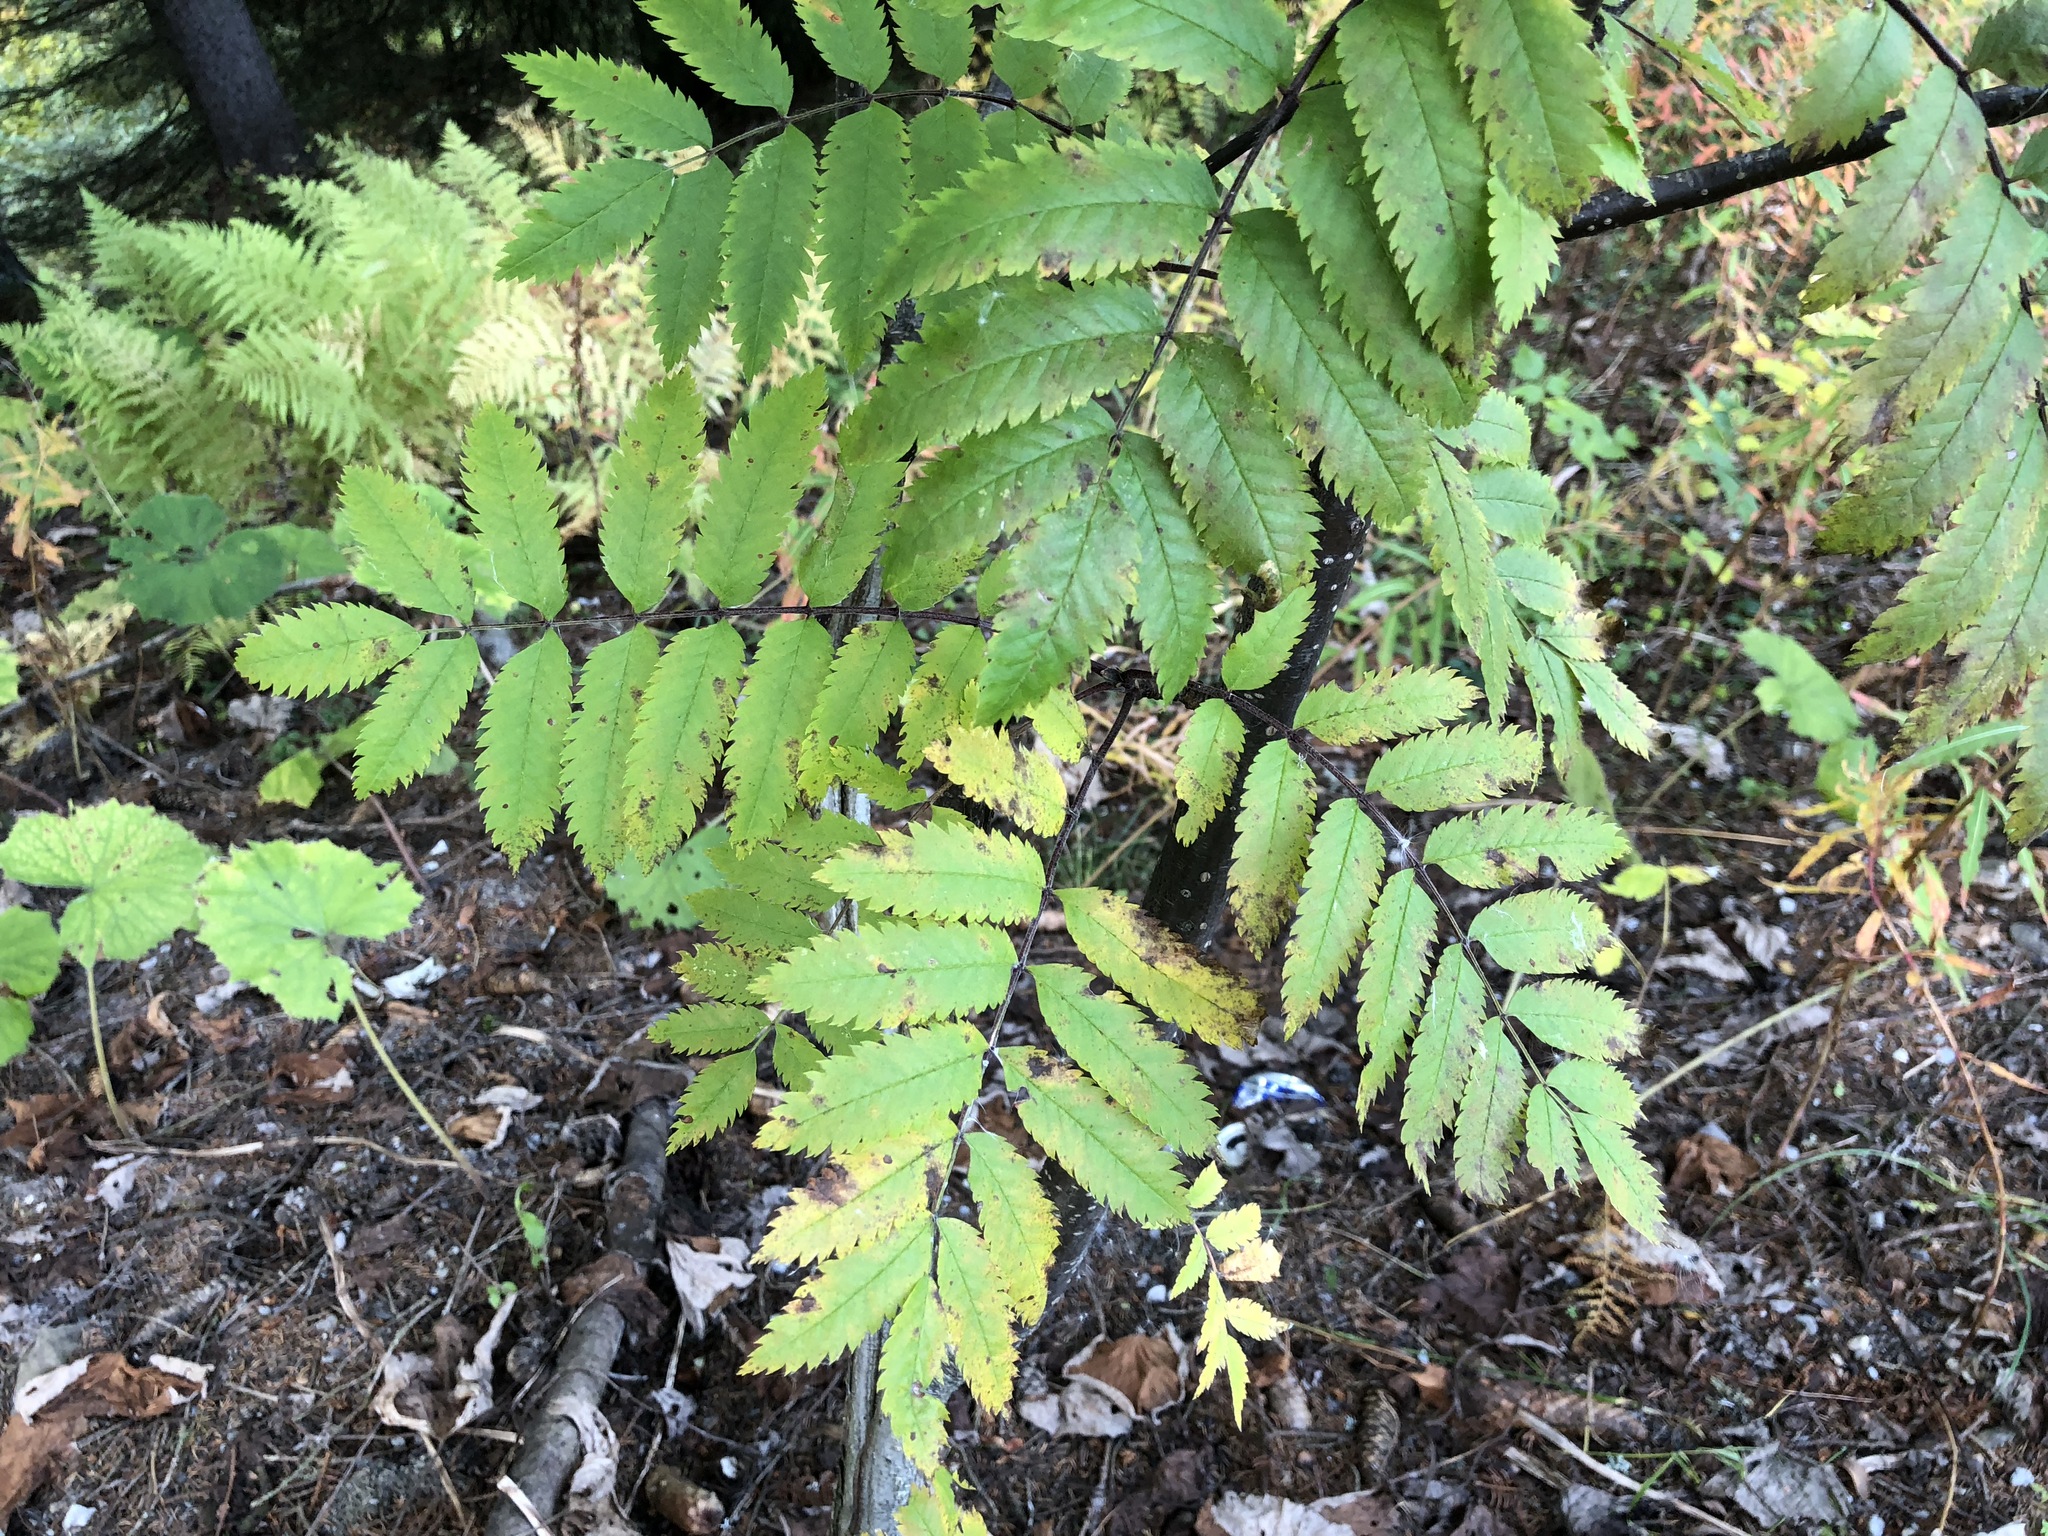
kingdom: Plantae
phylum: Tracheophyta
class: Magnoliopsida
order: Rosales
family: Rosaceae
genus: Sorbus
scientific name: Sorbus aucuparia
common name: Rowan
